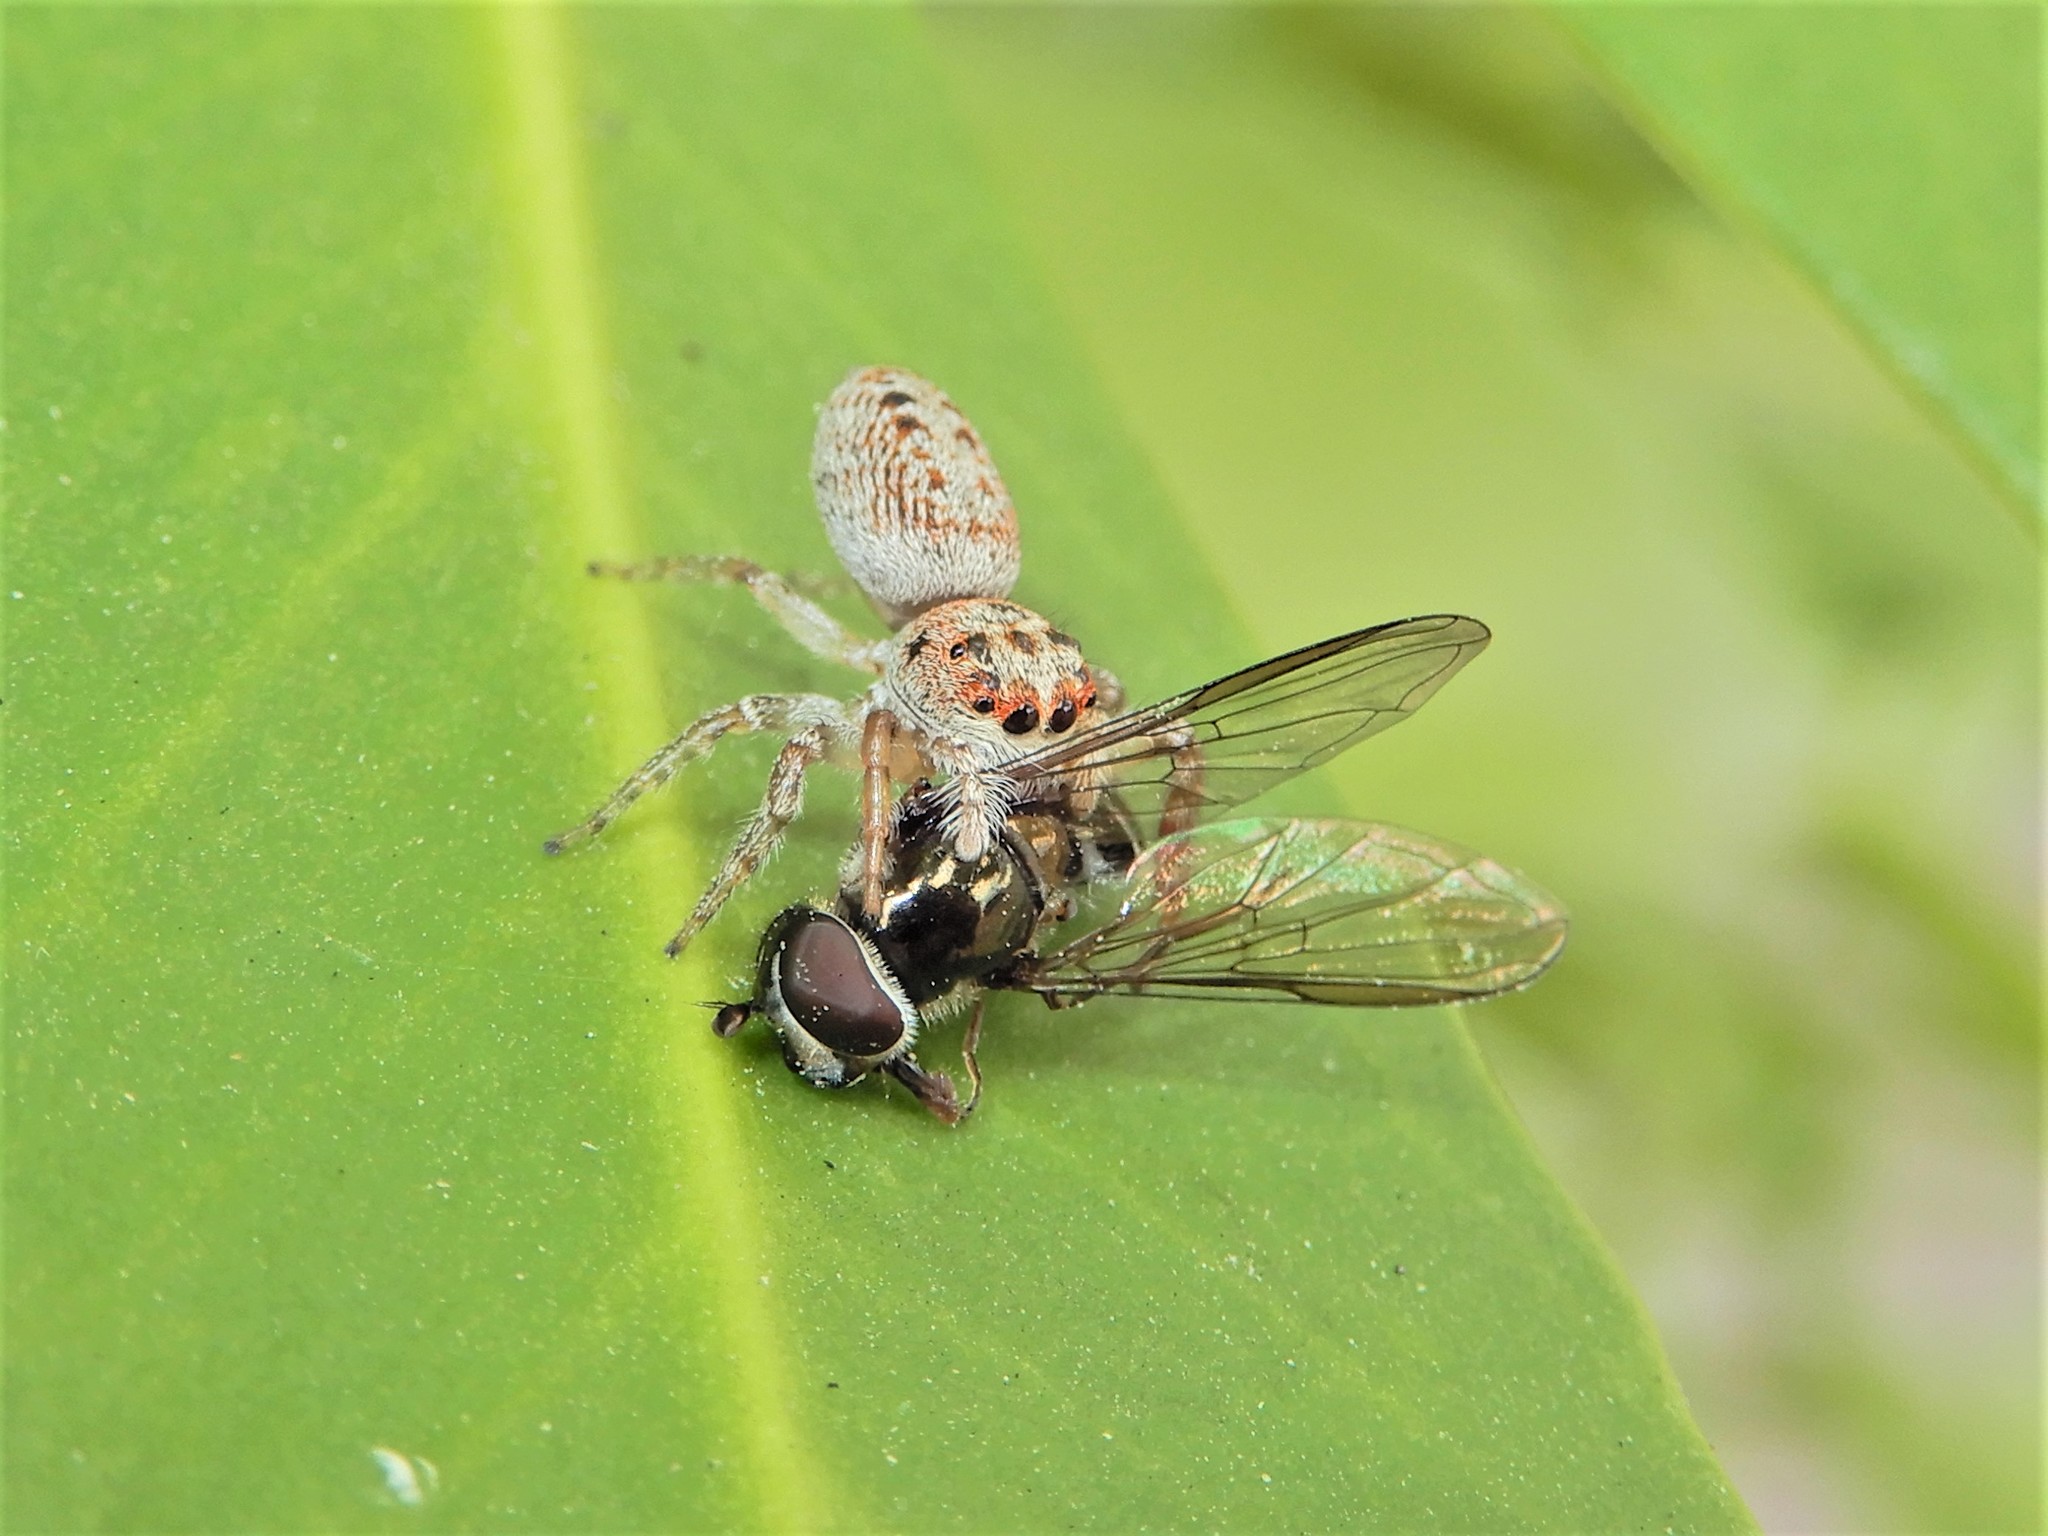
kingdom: Animalia
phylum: Arthropoda
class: Arachnida
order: Araneae
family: Salticidae
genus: Opisthoncus
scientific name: Opisthoncus polyphemus
